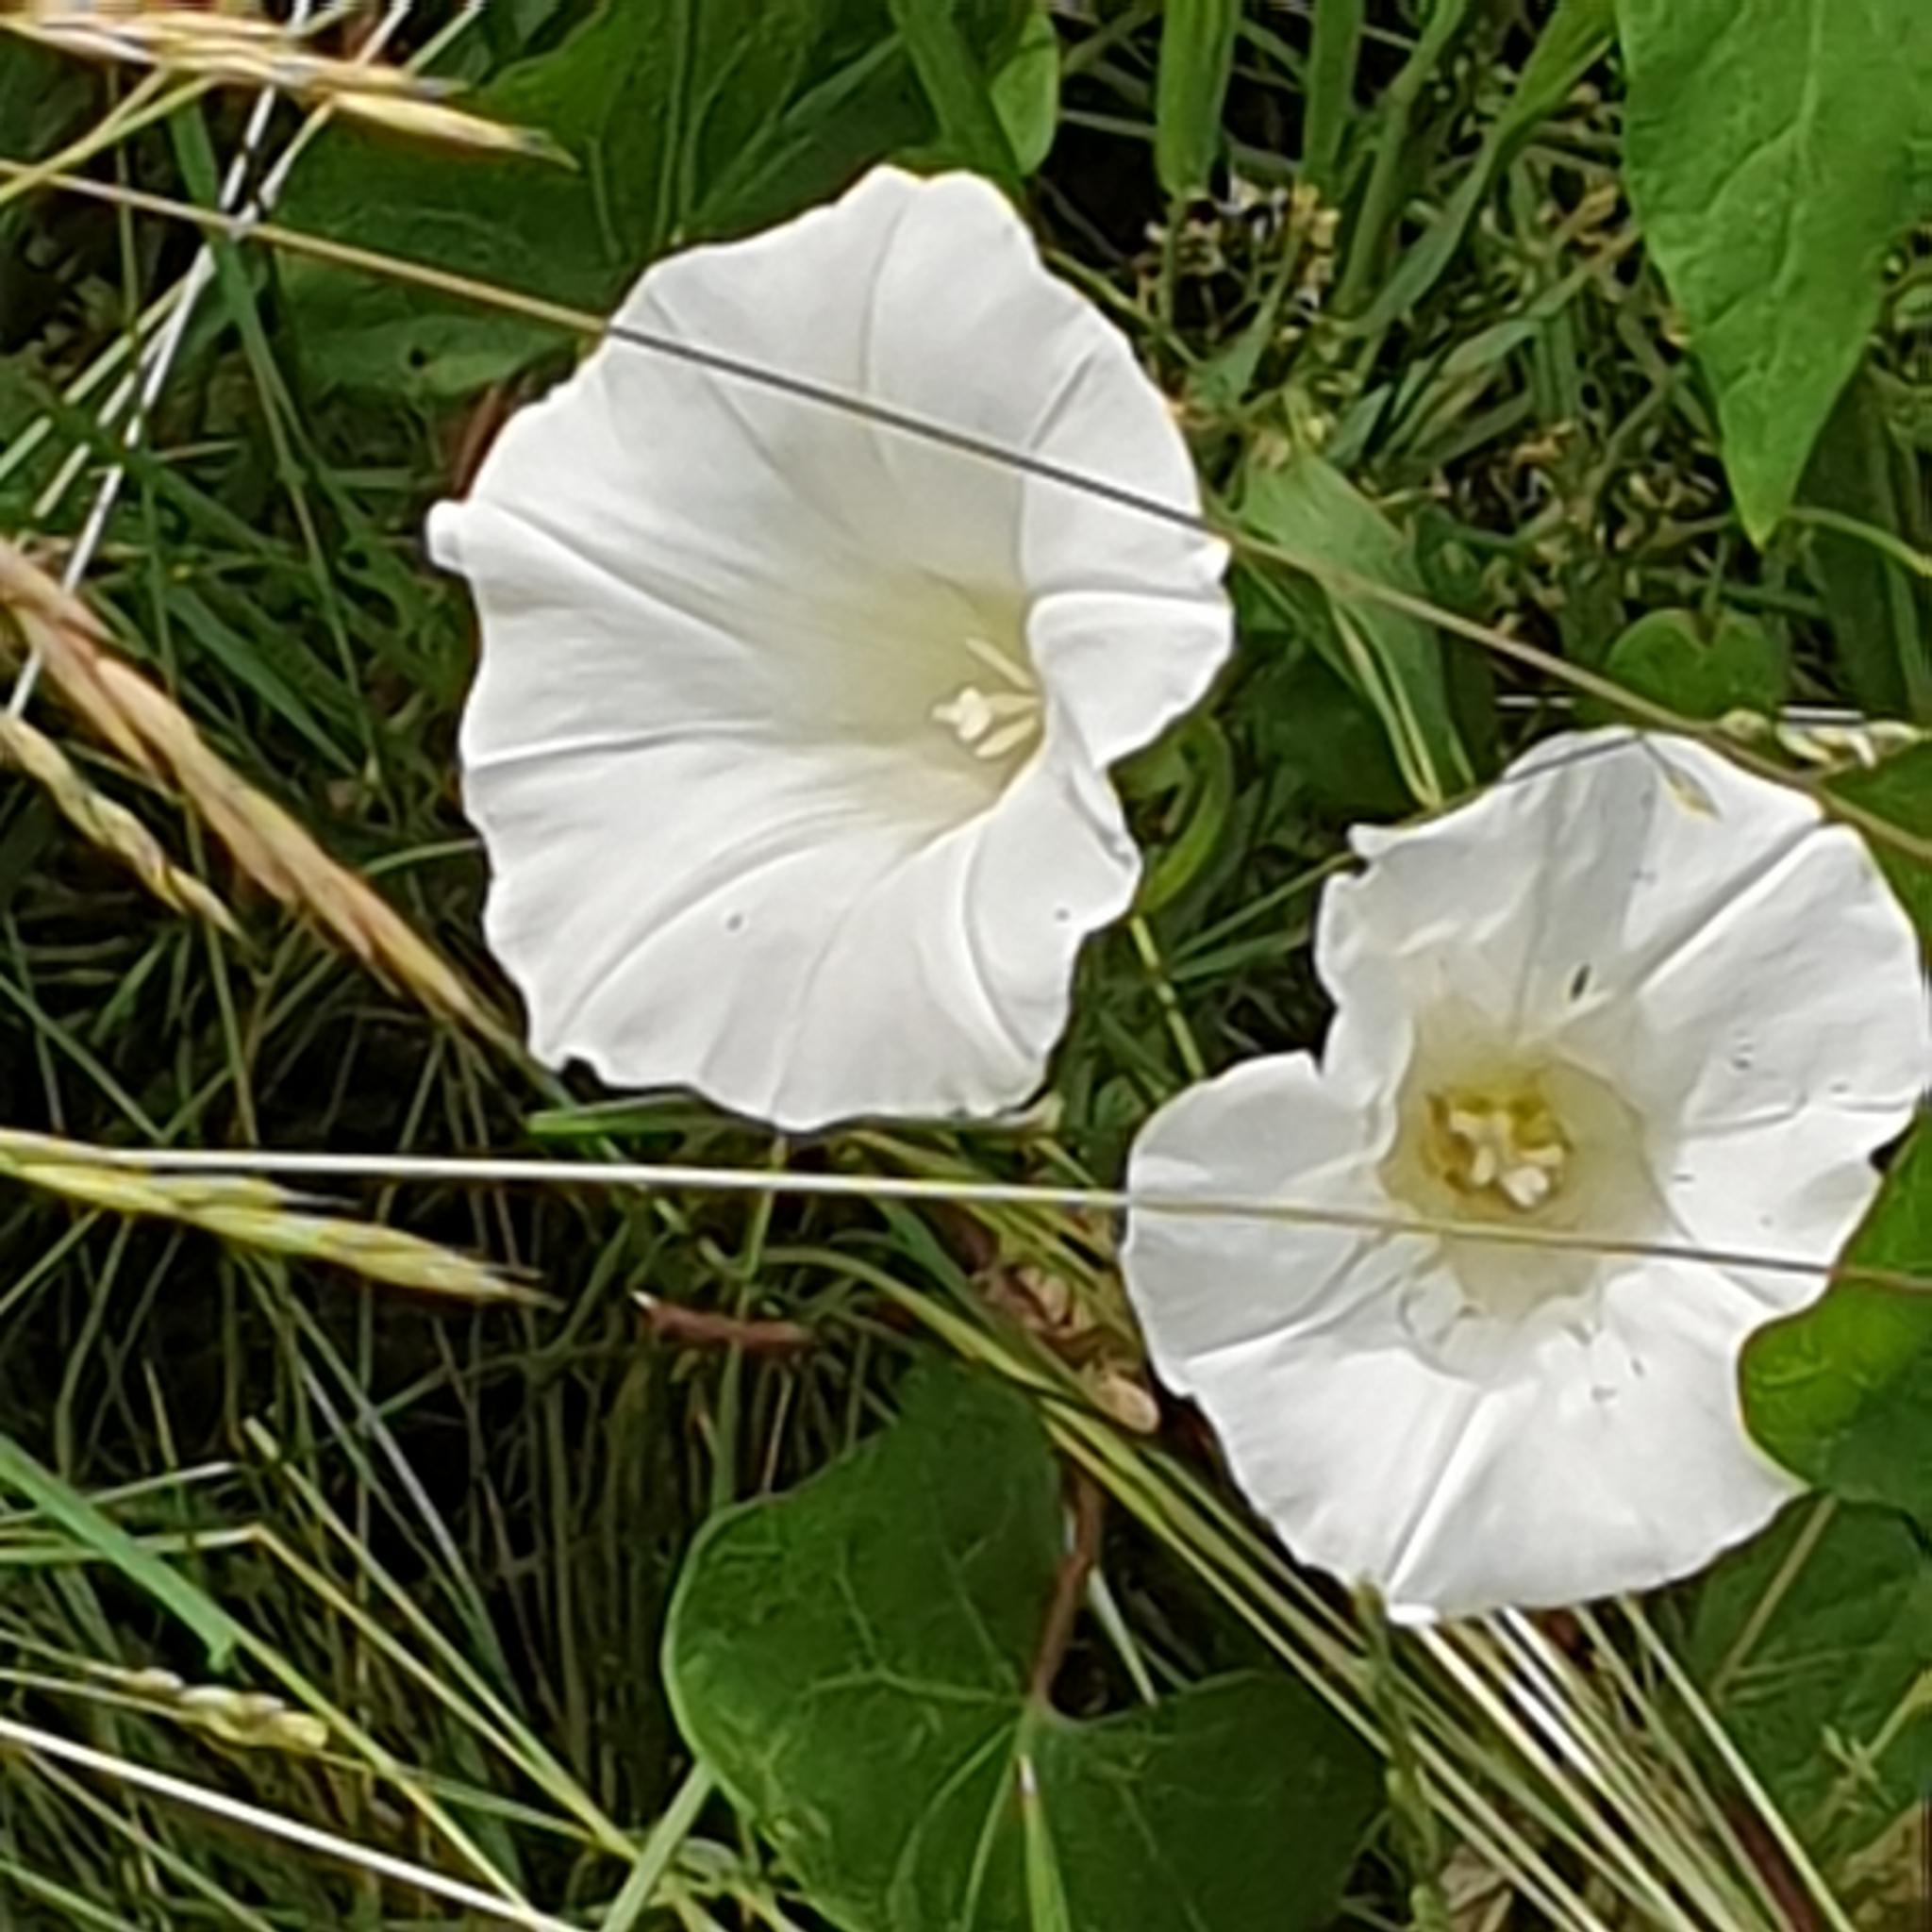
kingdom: Plantae
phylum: Tracheophyta
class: Magnoliopsida
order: Solanales
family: Convolvulaceae
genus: Calystegia
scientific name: Calystegia sepium
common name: Hedge bindweed
